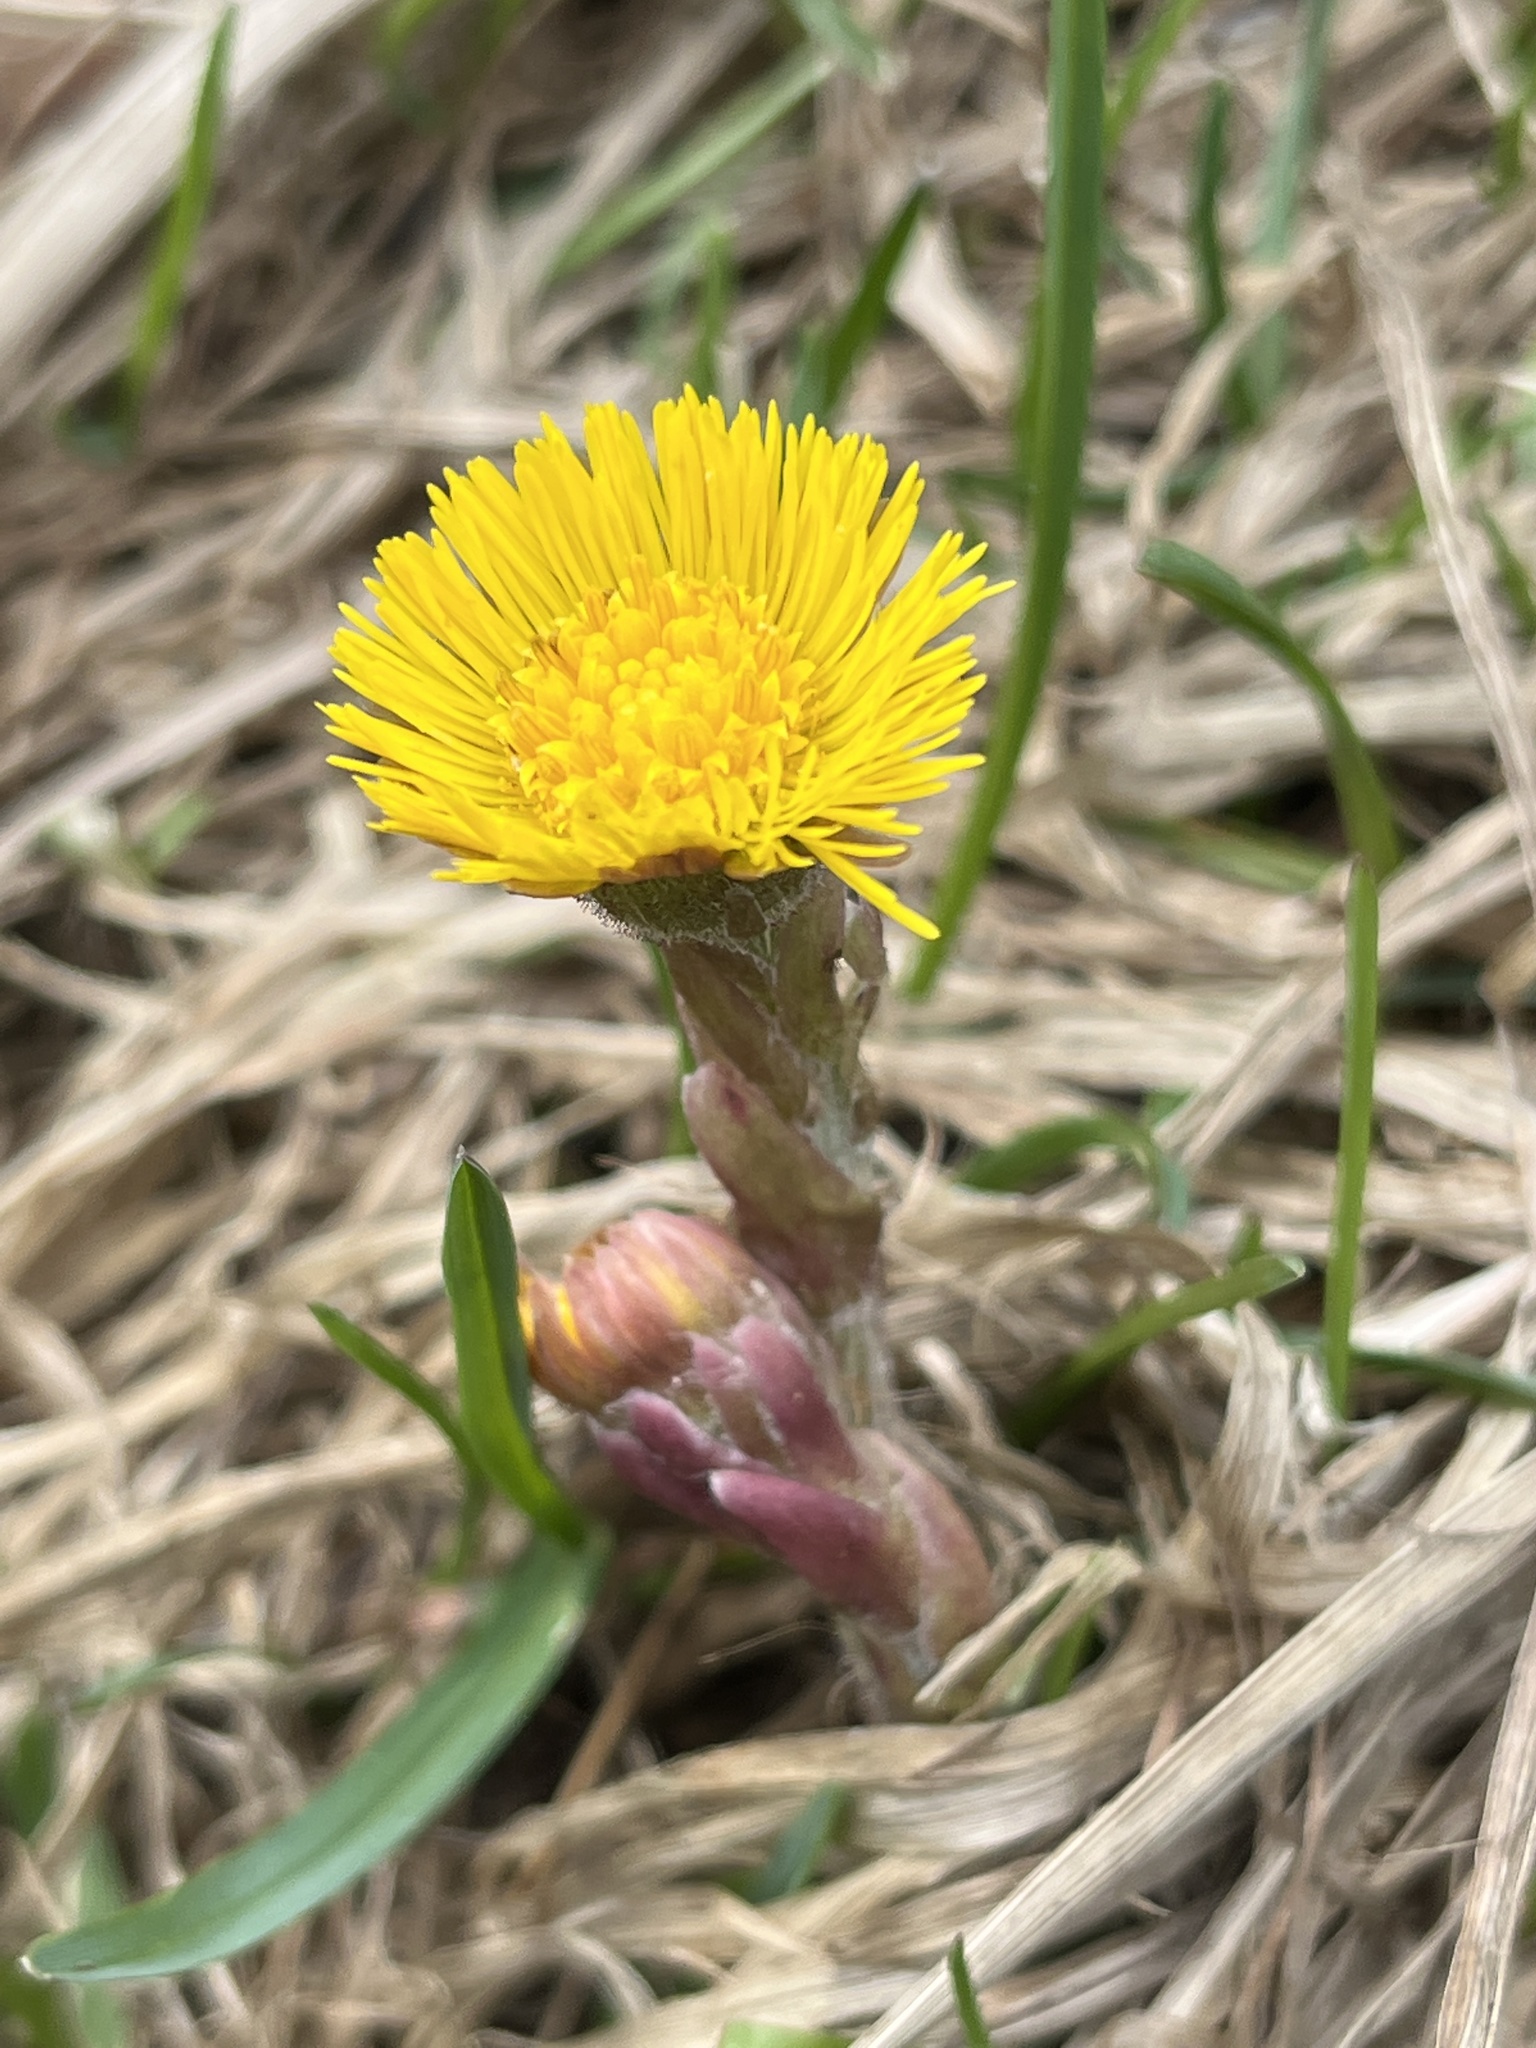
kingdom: Plantae
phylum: Tracheophyta
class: Magnoliopsida
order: Asterales
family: Asteraceae
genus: Tussilago
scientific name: Tussilago farfara
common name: Coltsfoot
